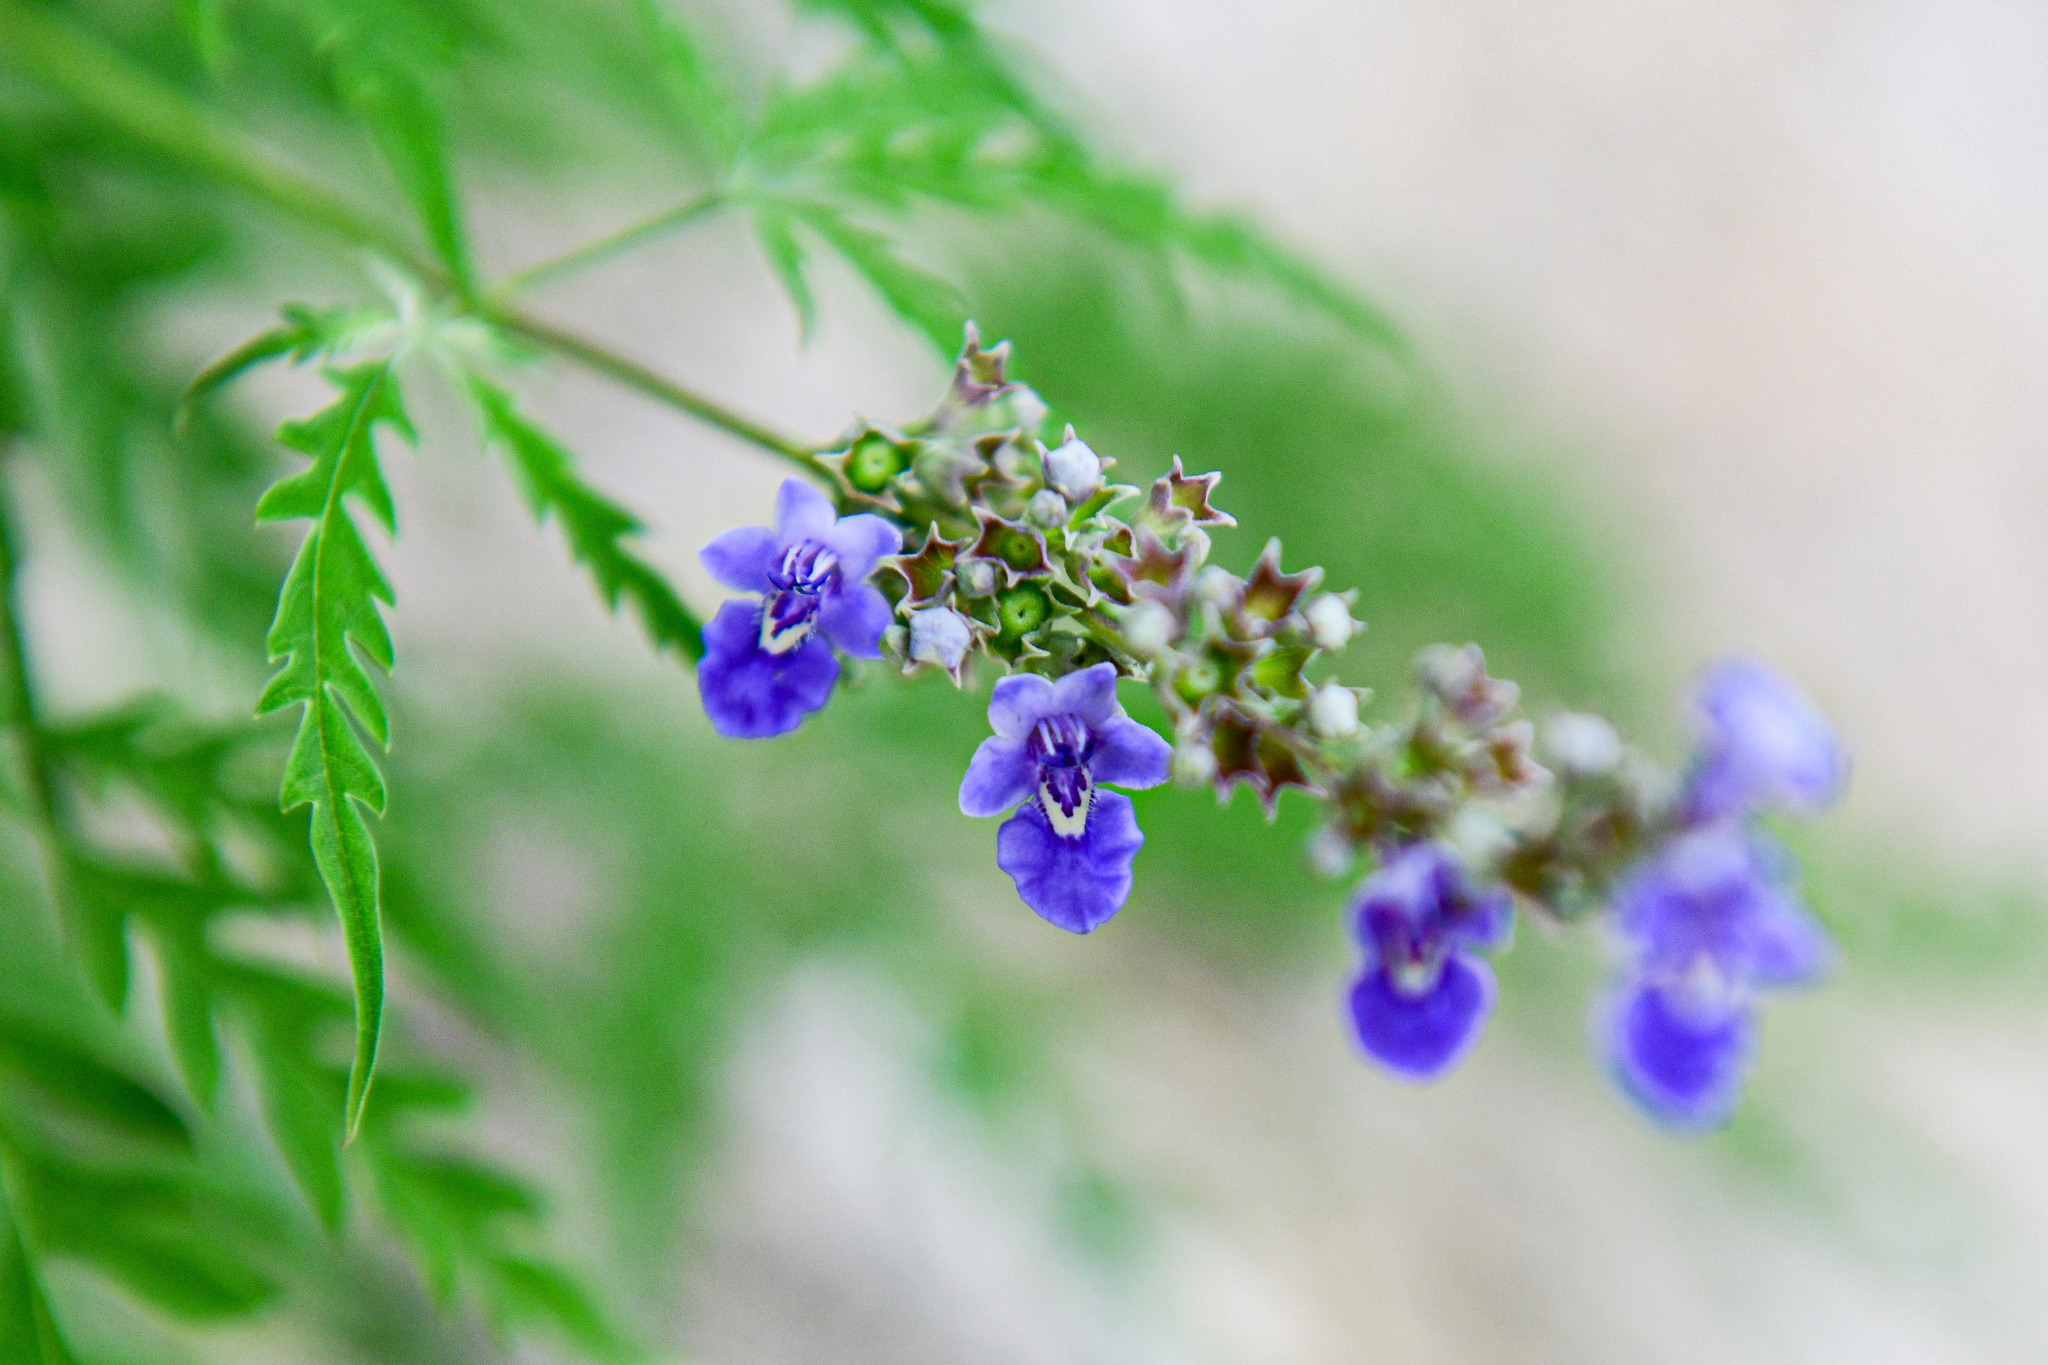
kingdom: Plantae
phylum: Tracheophyta
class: Magnoliopsida
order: Lamiales
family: Lamiaceae
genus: Vitex
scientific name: Vitex negundo
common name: Chinese chastetree
